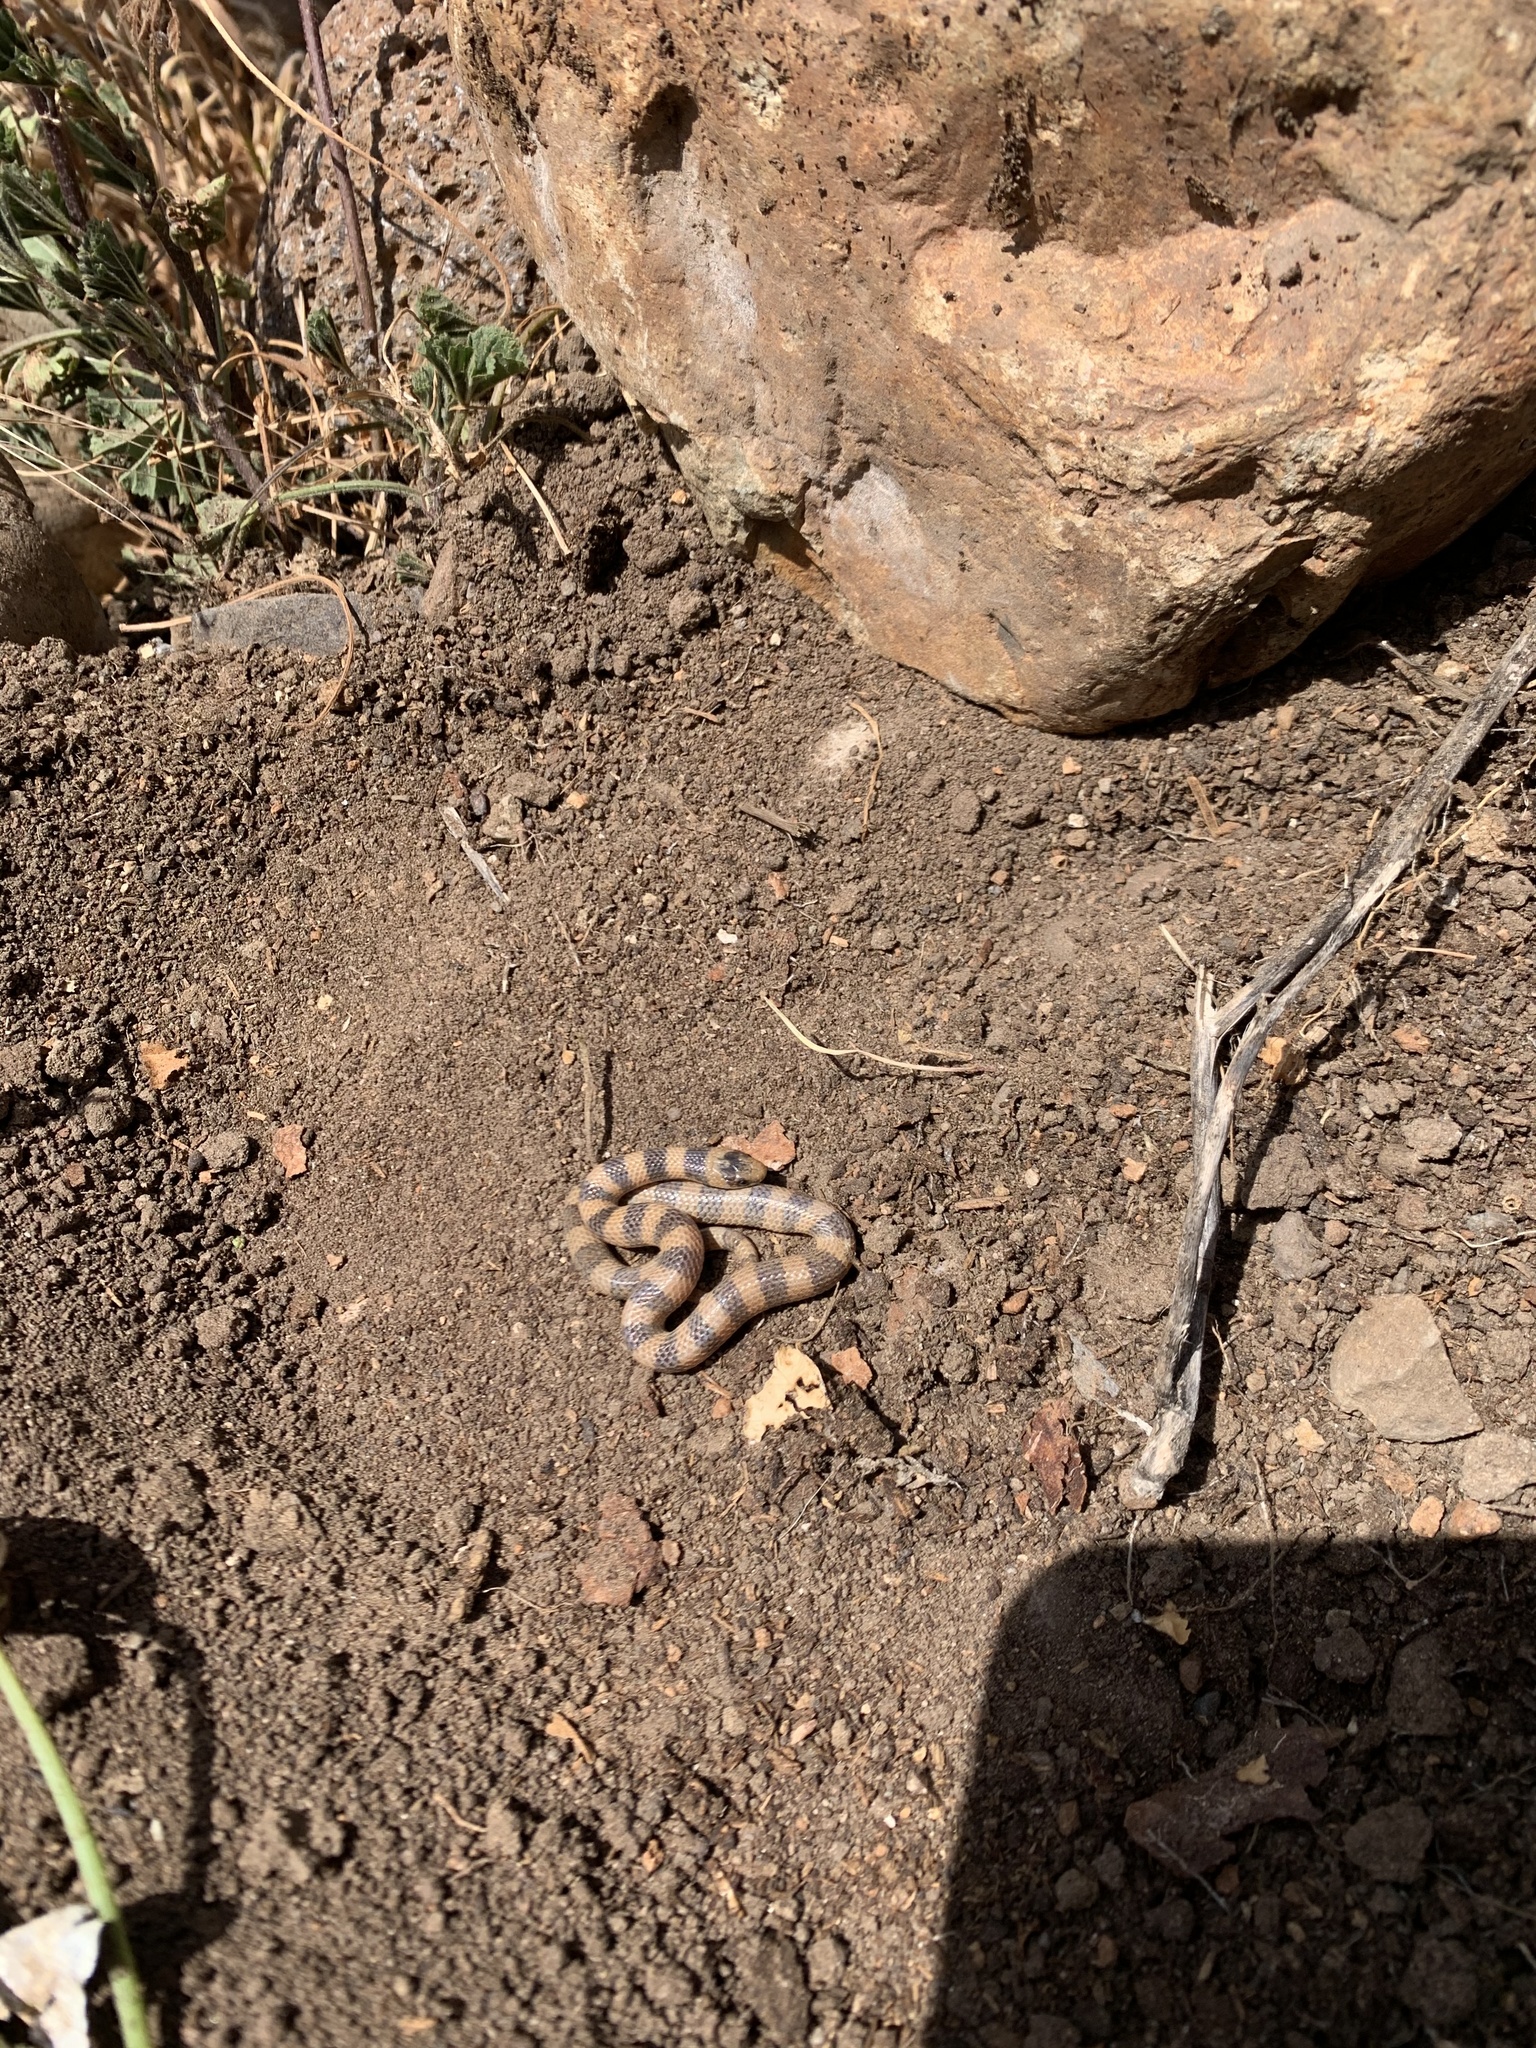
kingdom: Animalia
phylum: Chordata
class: Squamata
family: Colubridae
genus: Sonora
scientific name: Sonora mosaueri
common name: Mosauer’s ground snake
